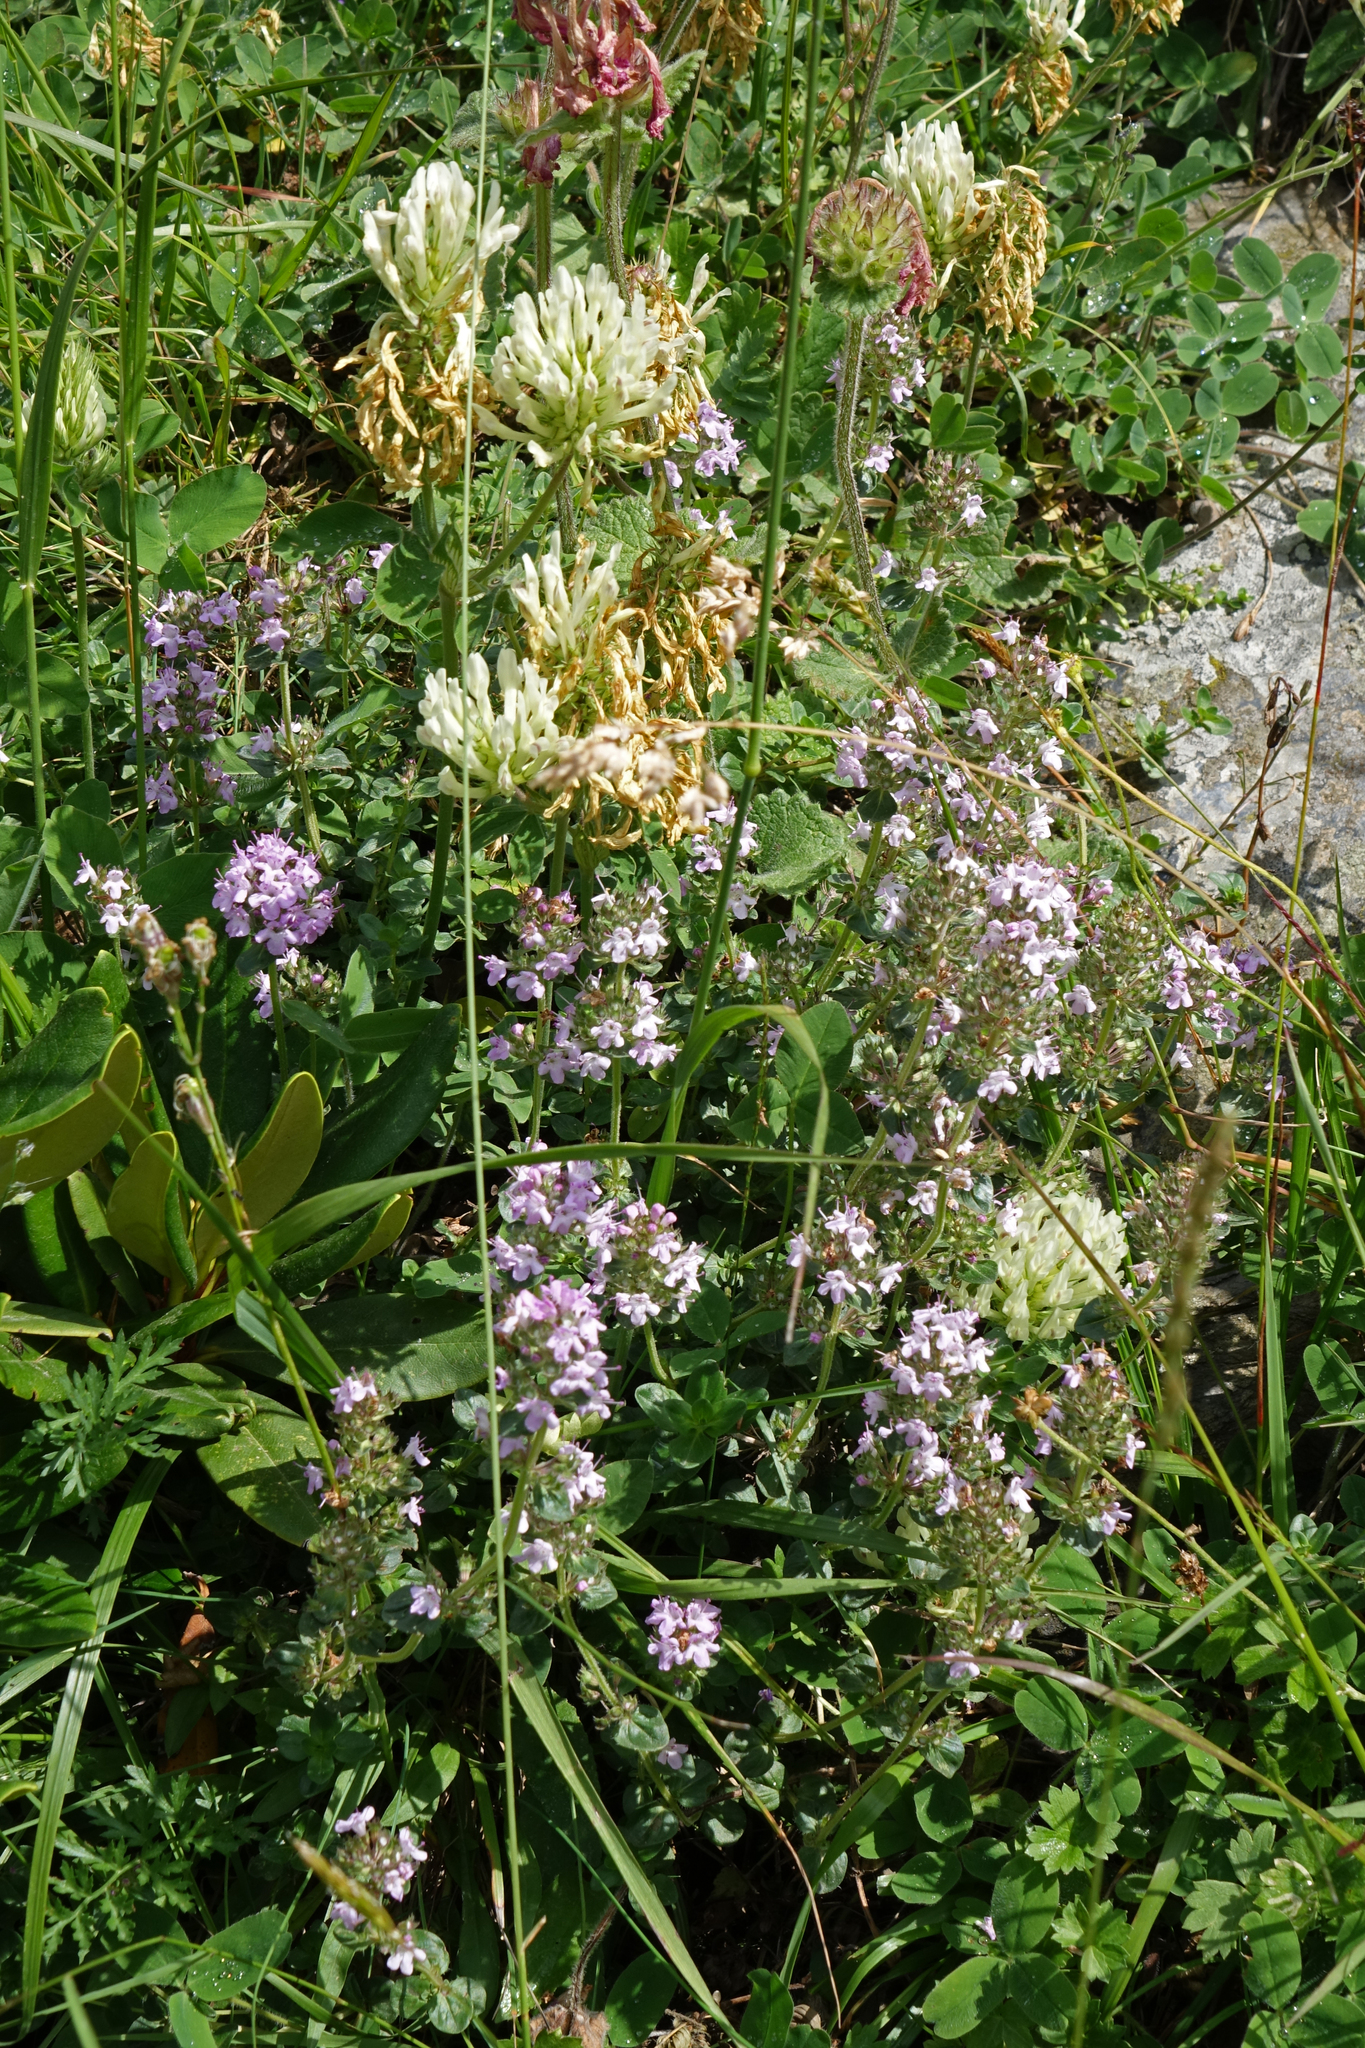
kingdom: Plantae
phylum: Tracheophyta
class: Magnoliopsida
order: Fabales
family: Fabaceae
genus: Trifolium
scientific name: Trifolium canescens
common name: Graying clover
